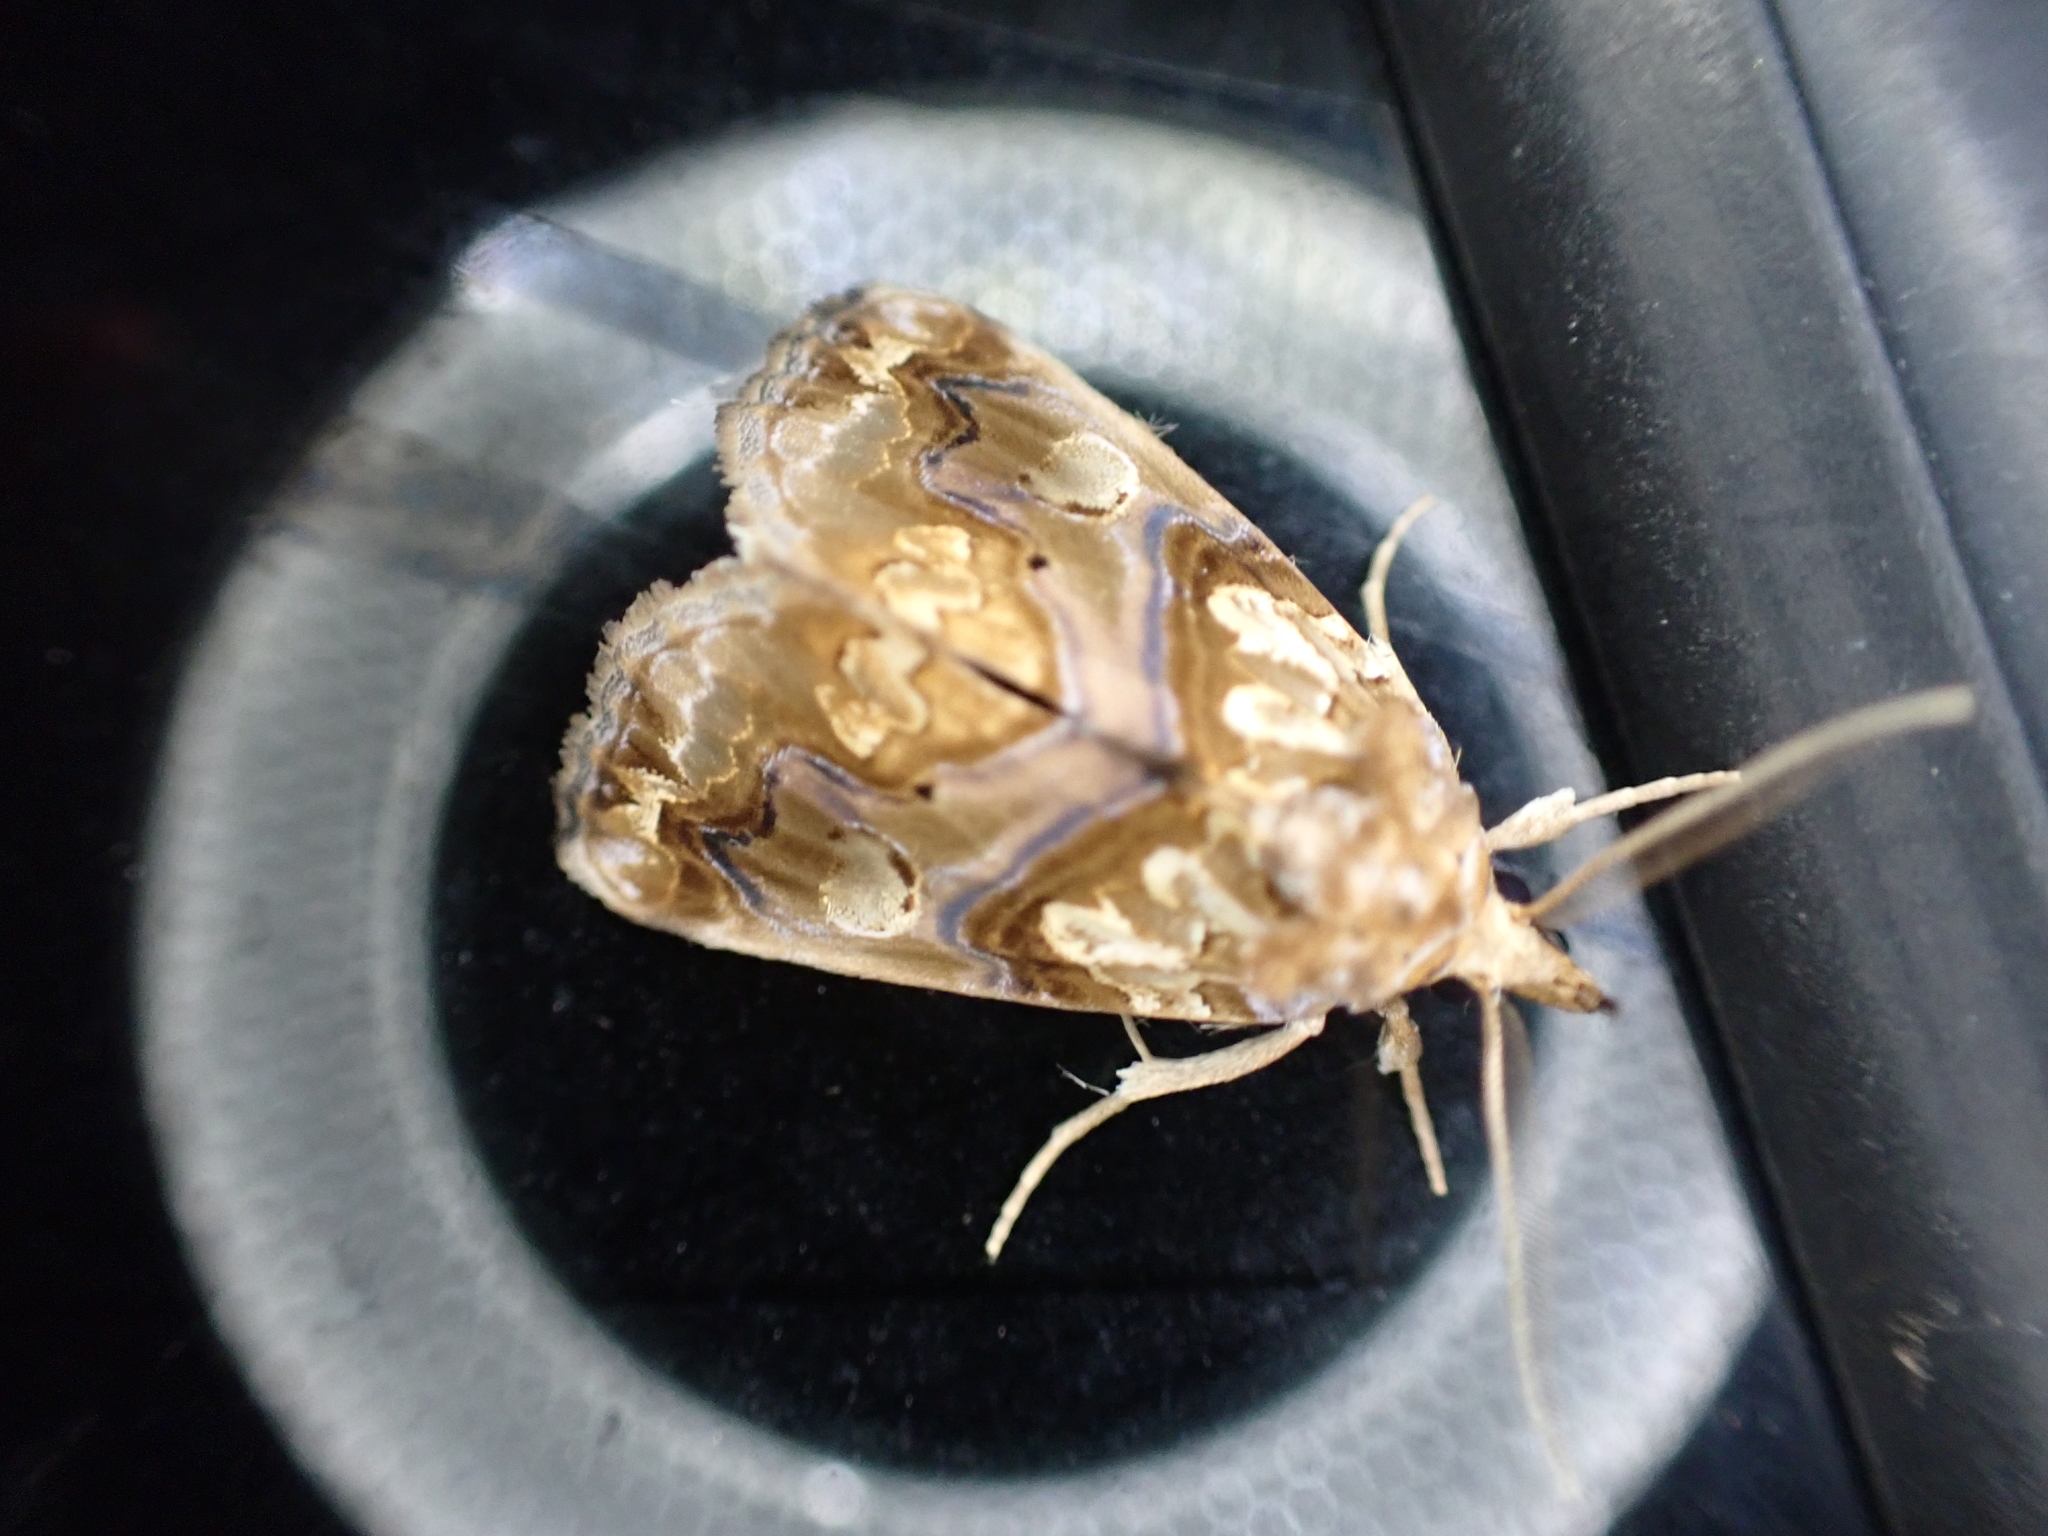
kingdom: Animalia
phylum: Arthropoda
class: Insecta
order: Lepidoptera
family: Erebidae
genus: Plusiodonta
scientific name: Plusiodonta compressipalpis
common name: Moonseed moth
